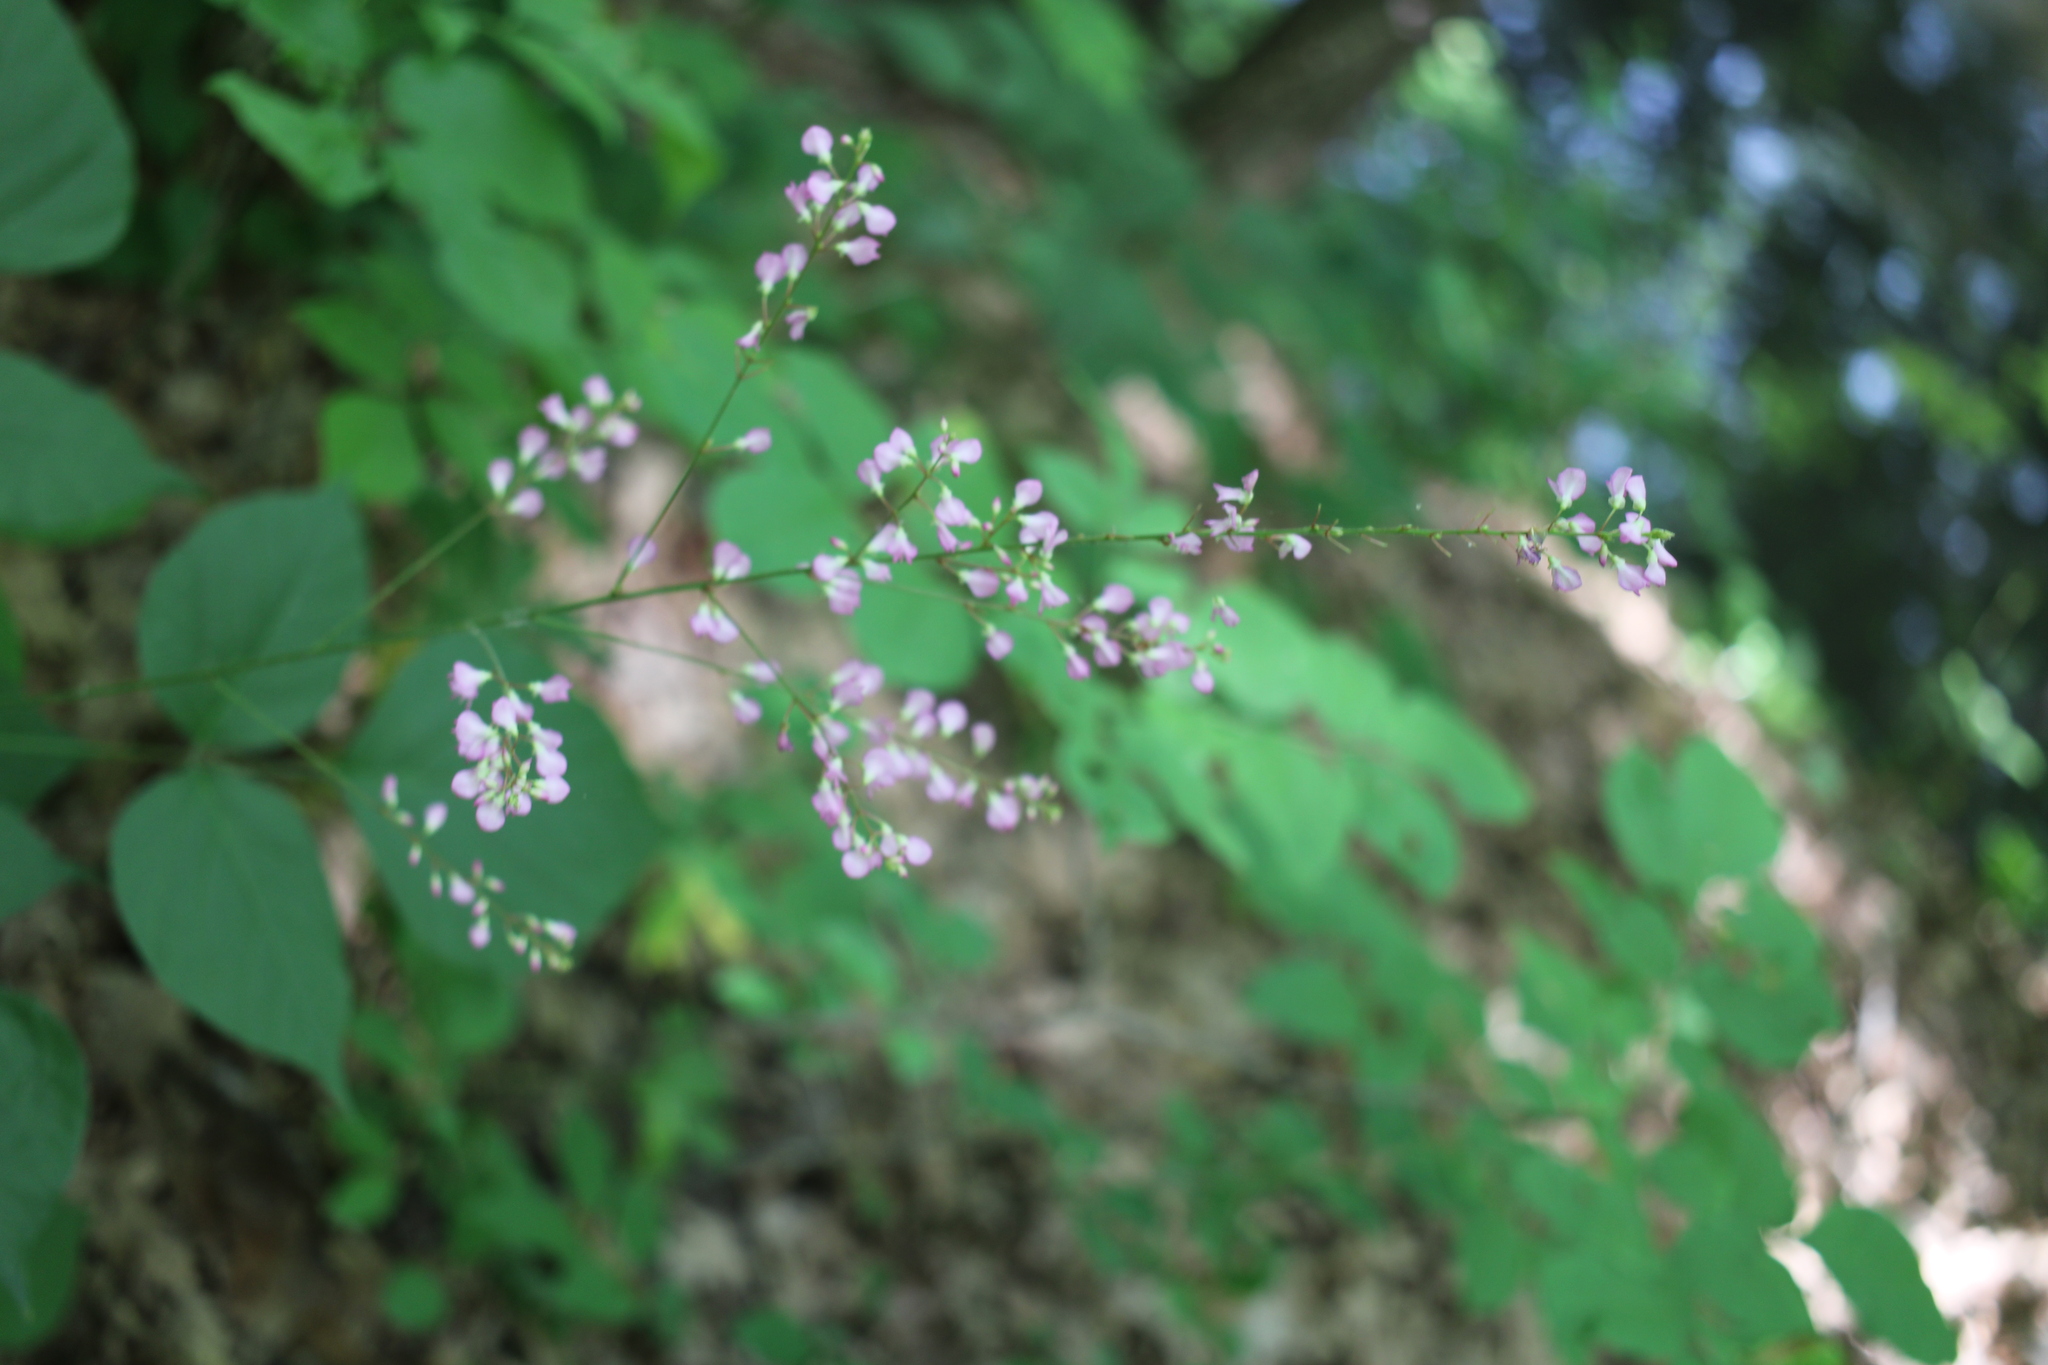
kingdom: Plantae
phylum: Tracheophyta
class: Magnoliopsida
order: Fabales
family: Fabaceae
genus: Hylodesmum
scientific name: Hylodesmum glutinosum
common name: Clustered-leaved tick-trefoil
